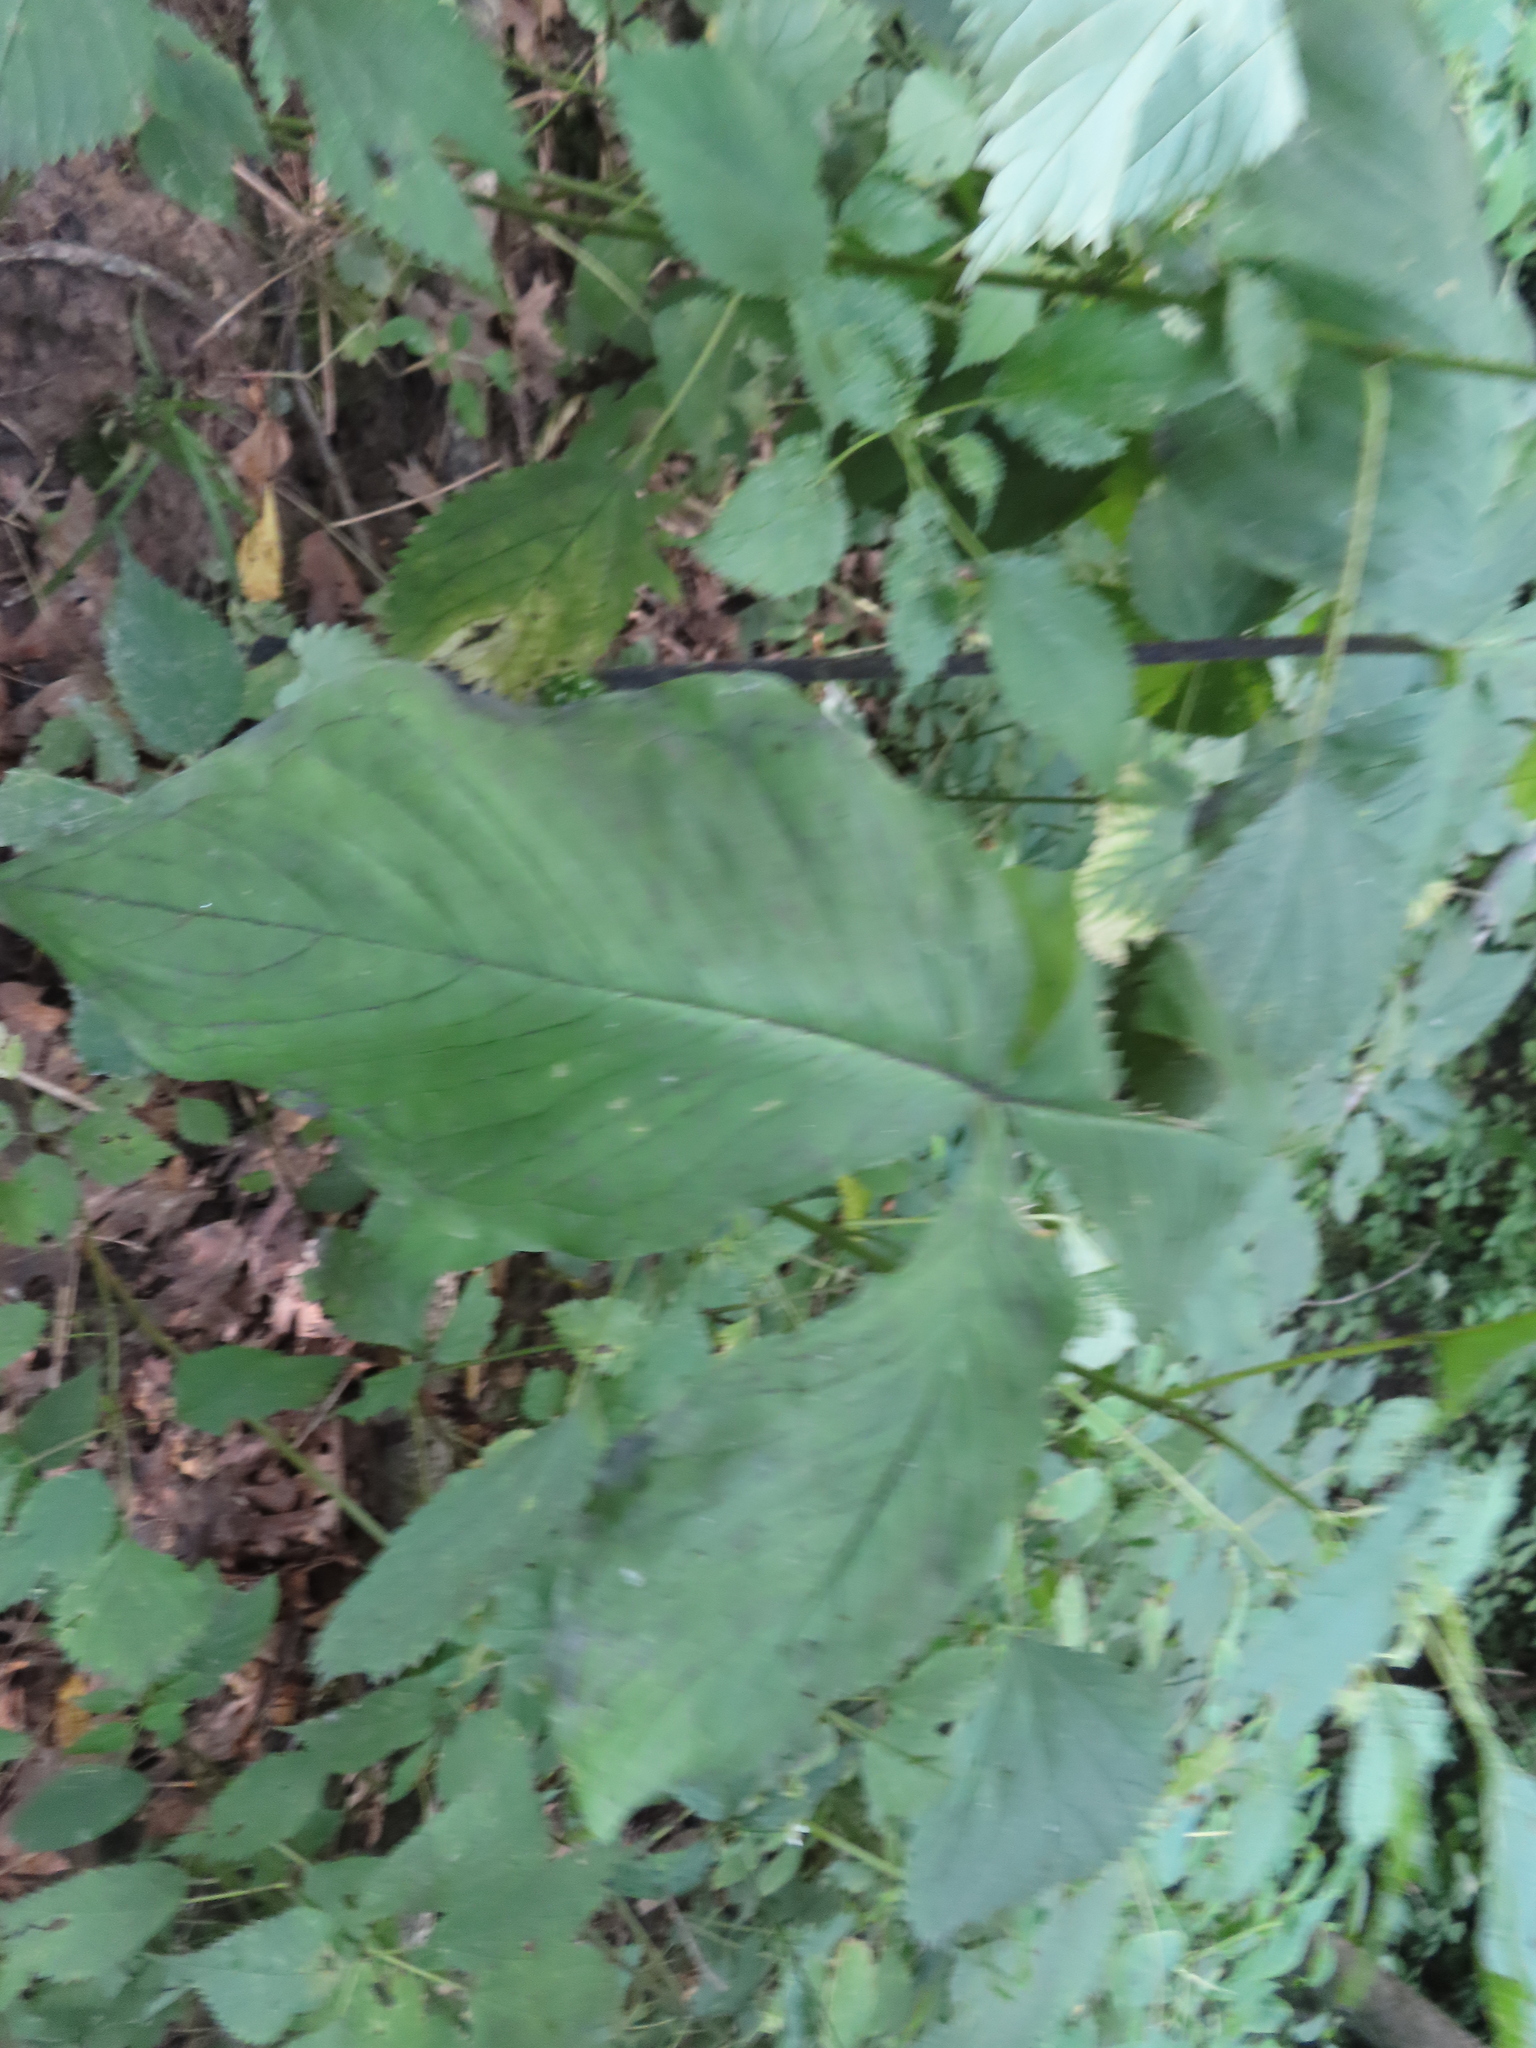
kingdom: Plantae
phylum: Tracheophyta
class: Liliopsida
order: Alismatales
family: Araceae
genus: Arisaema
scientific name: Arisaema triphyllum
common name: Jack-in-the-pulpit
